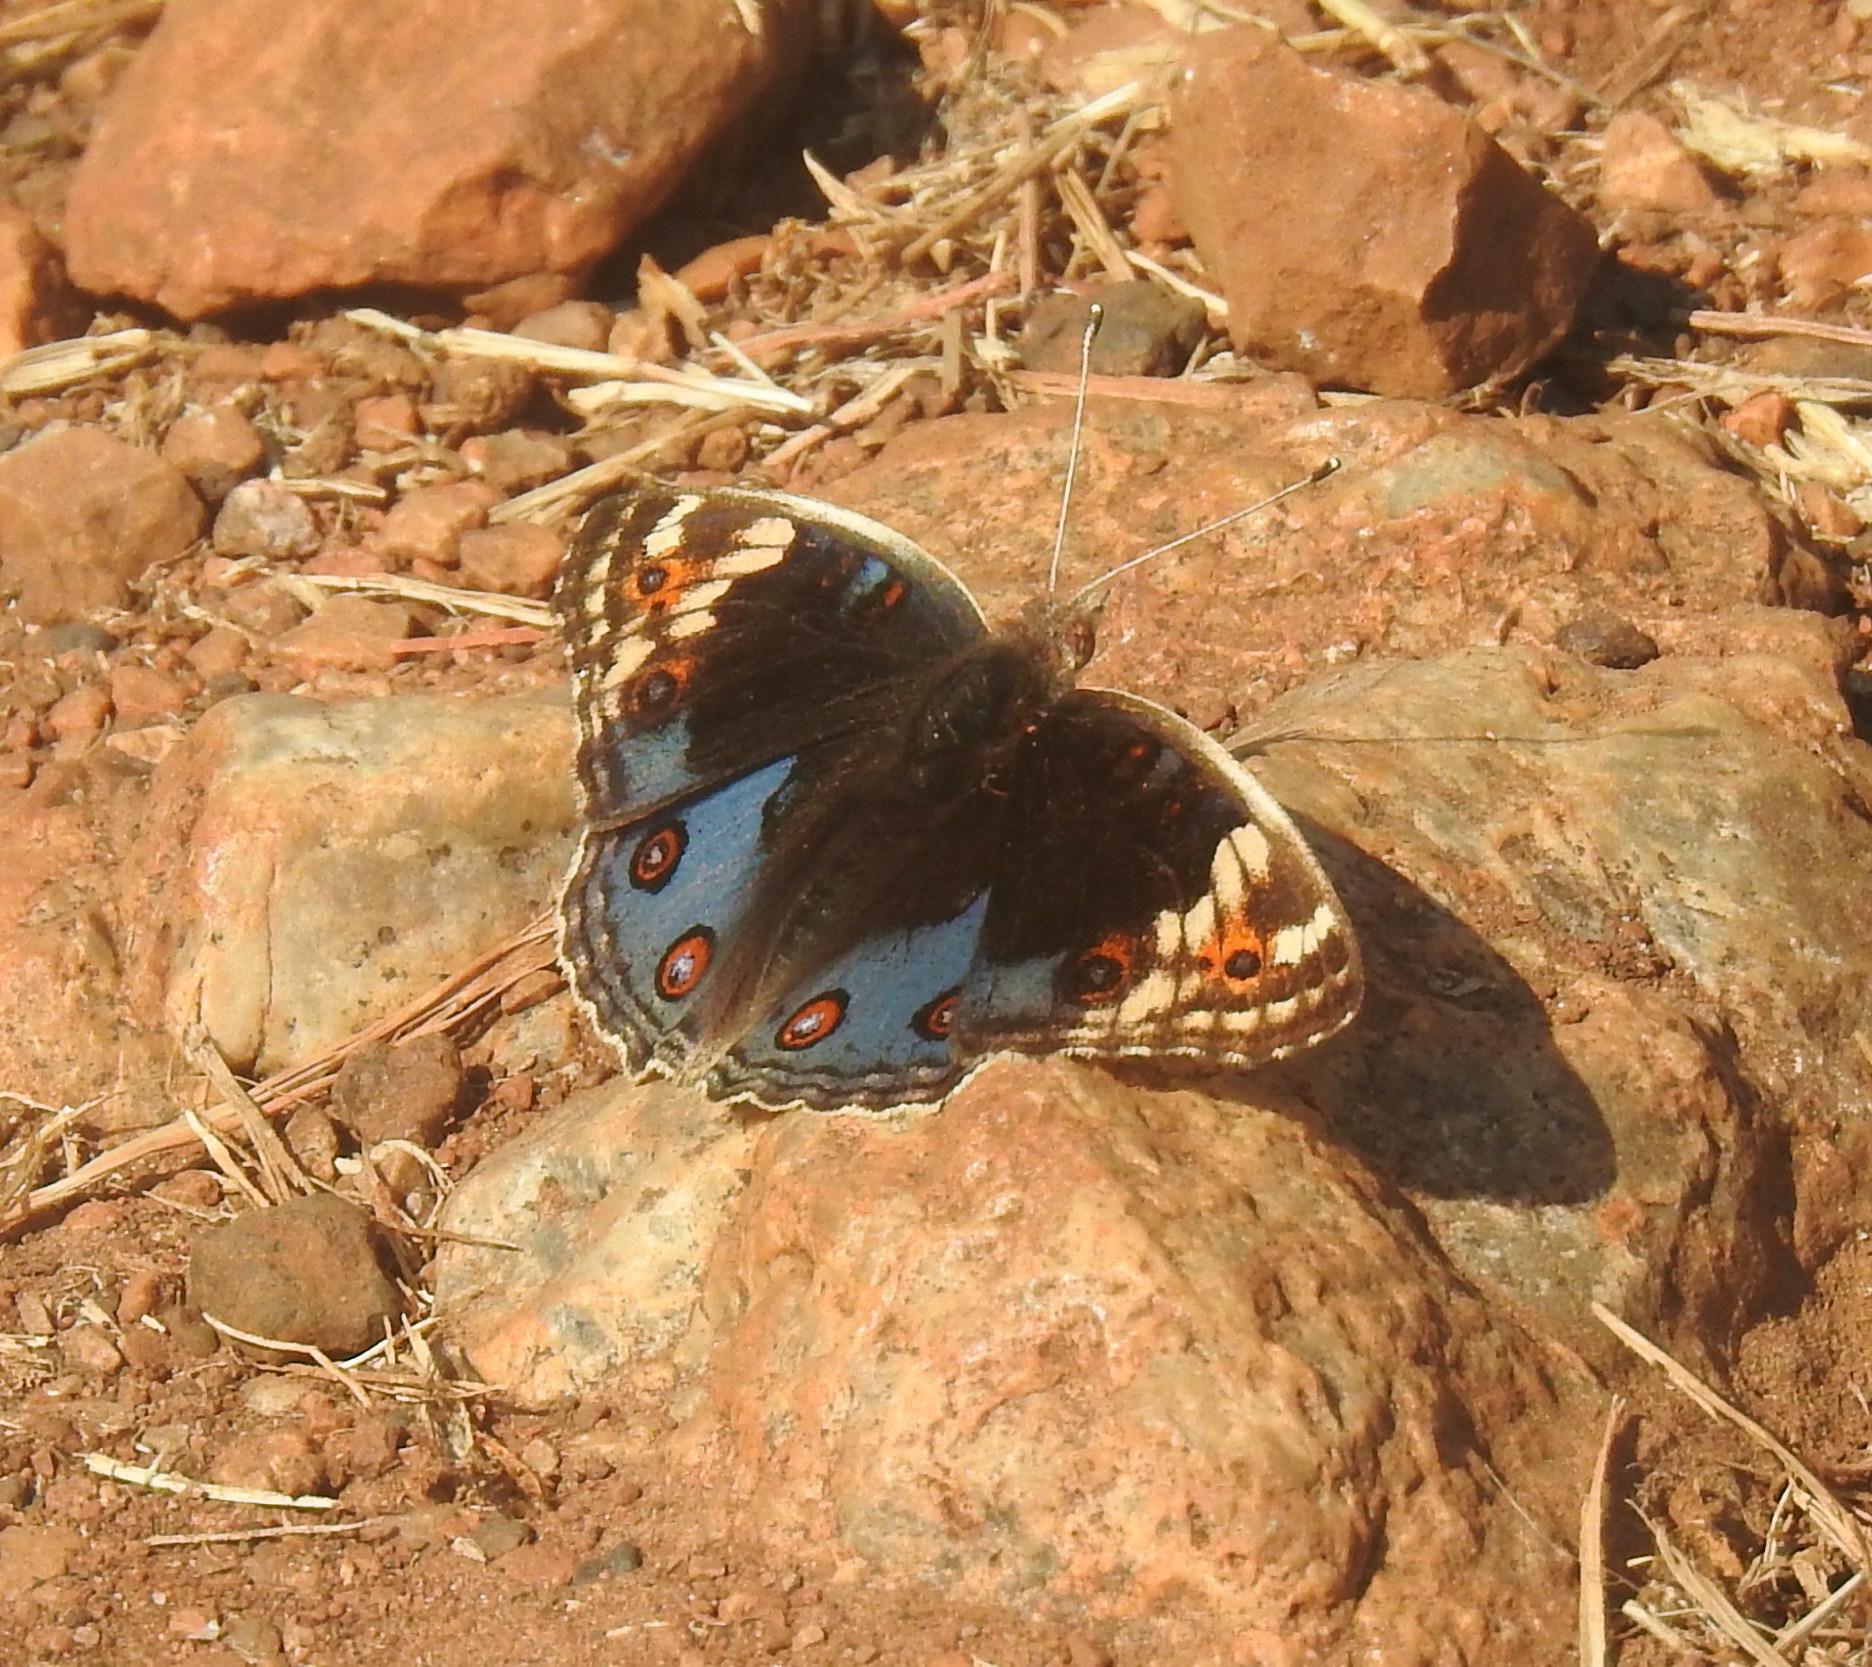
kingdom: Animalia
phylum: Arthropoda
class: Insecta
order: Lepidoptera
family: Nymphalidae
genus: Junonia
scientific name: Junonia orithya
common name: Blue pansy
